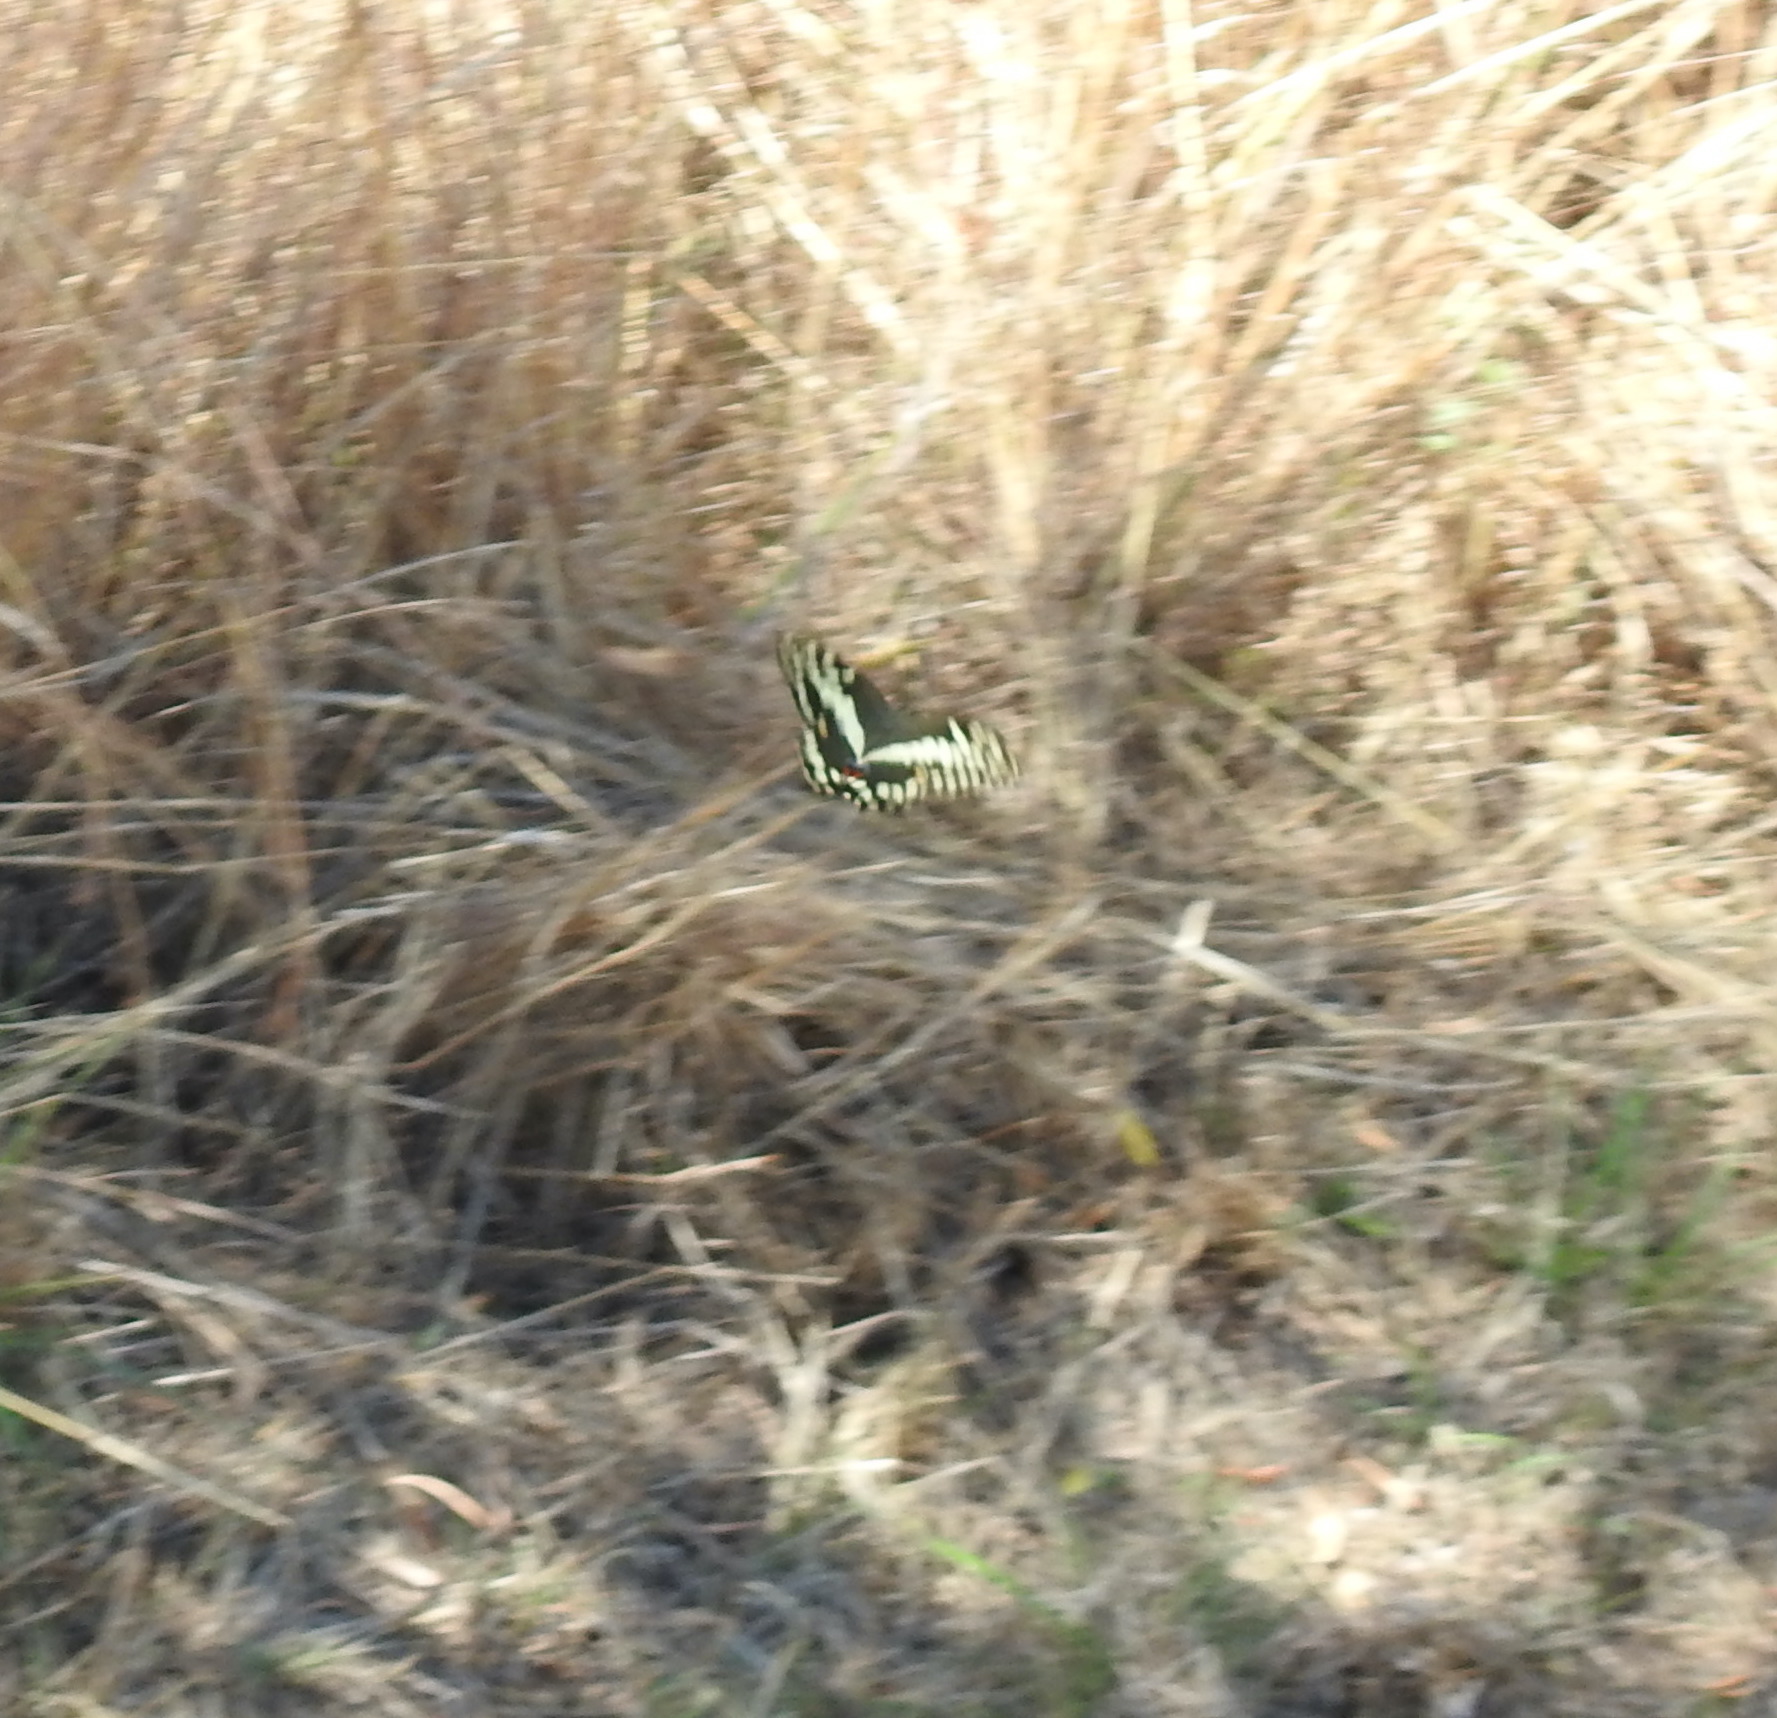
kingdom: Animalia
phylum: Arthropoda
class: Insecta
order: Lepidoptera
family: Papilionidae
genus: Papilio
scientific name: Papilio demodocus
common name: Christmas butterfly
